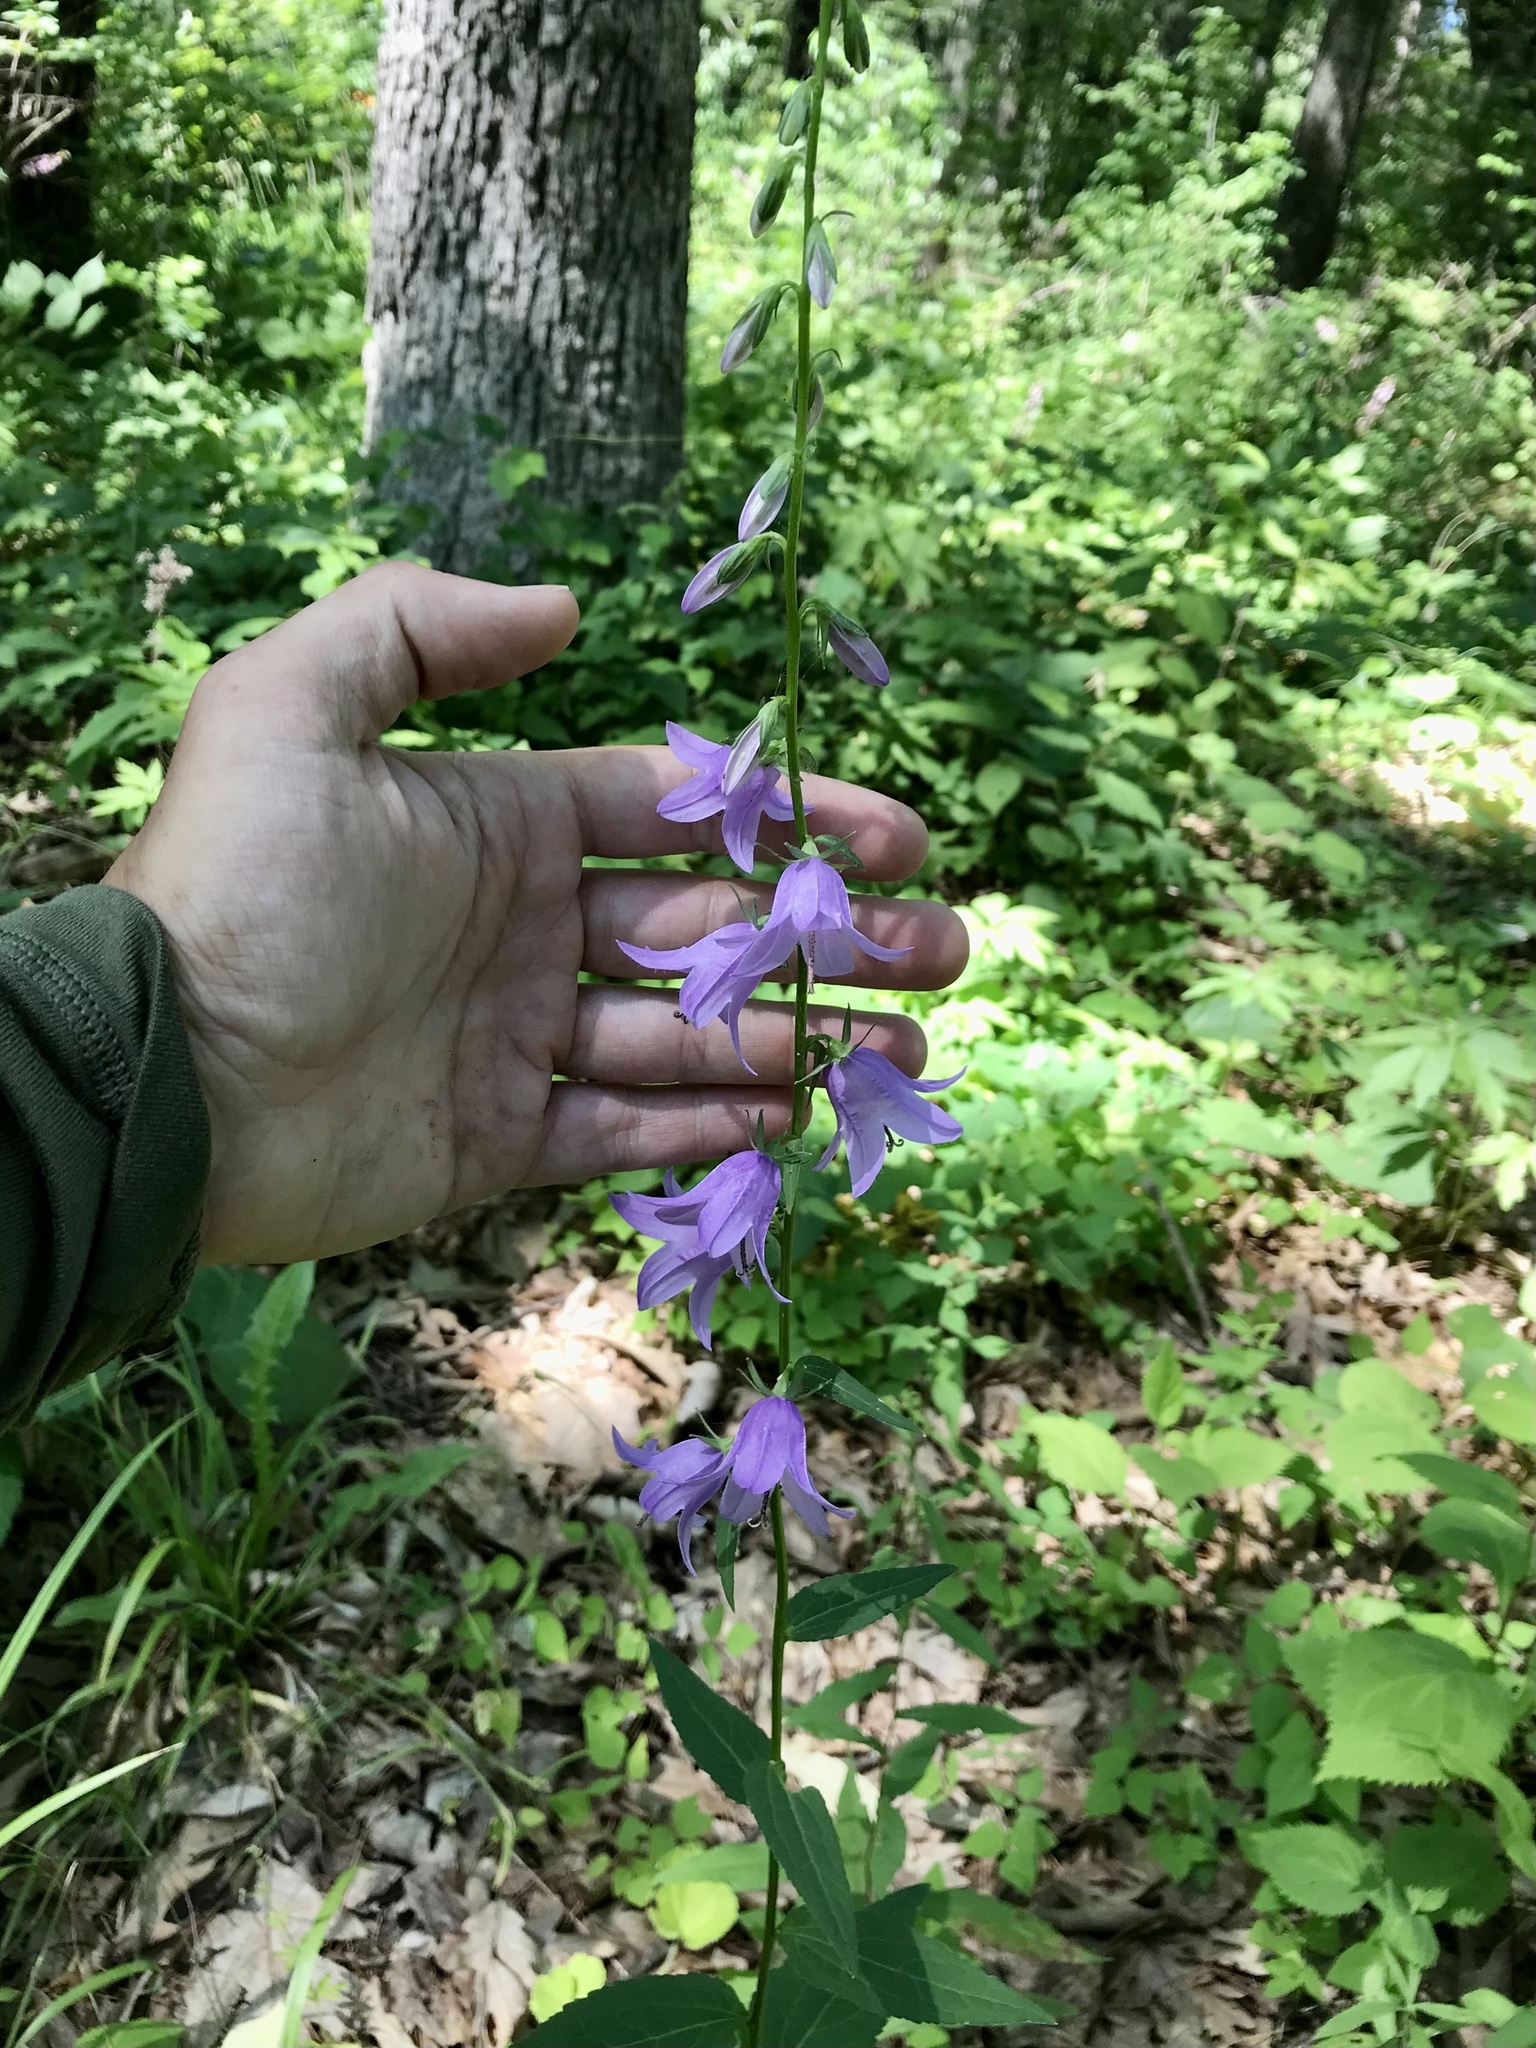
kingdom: Plantae
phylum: Tracheophyta
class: Magnoliopsida
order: Asterales
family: Campanulaceae
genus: Campanula
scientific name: Campanula rapunculoides
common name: Creeping bellflower
